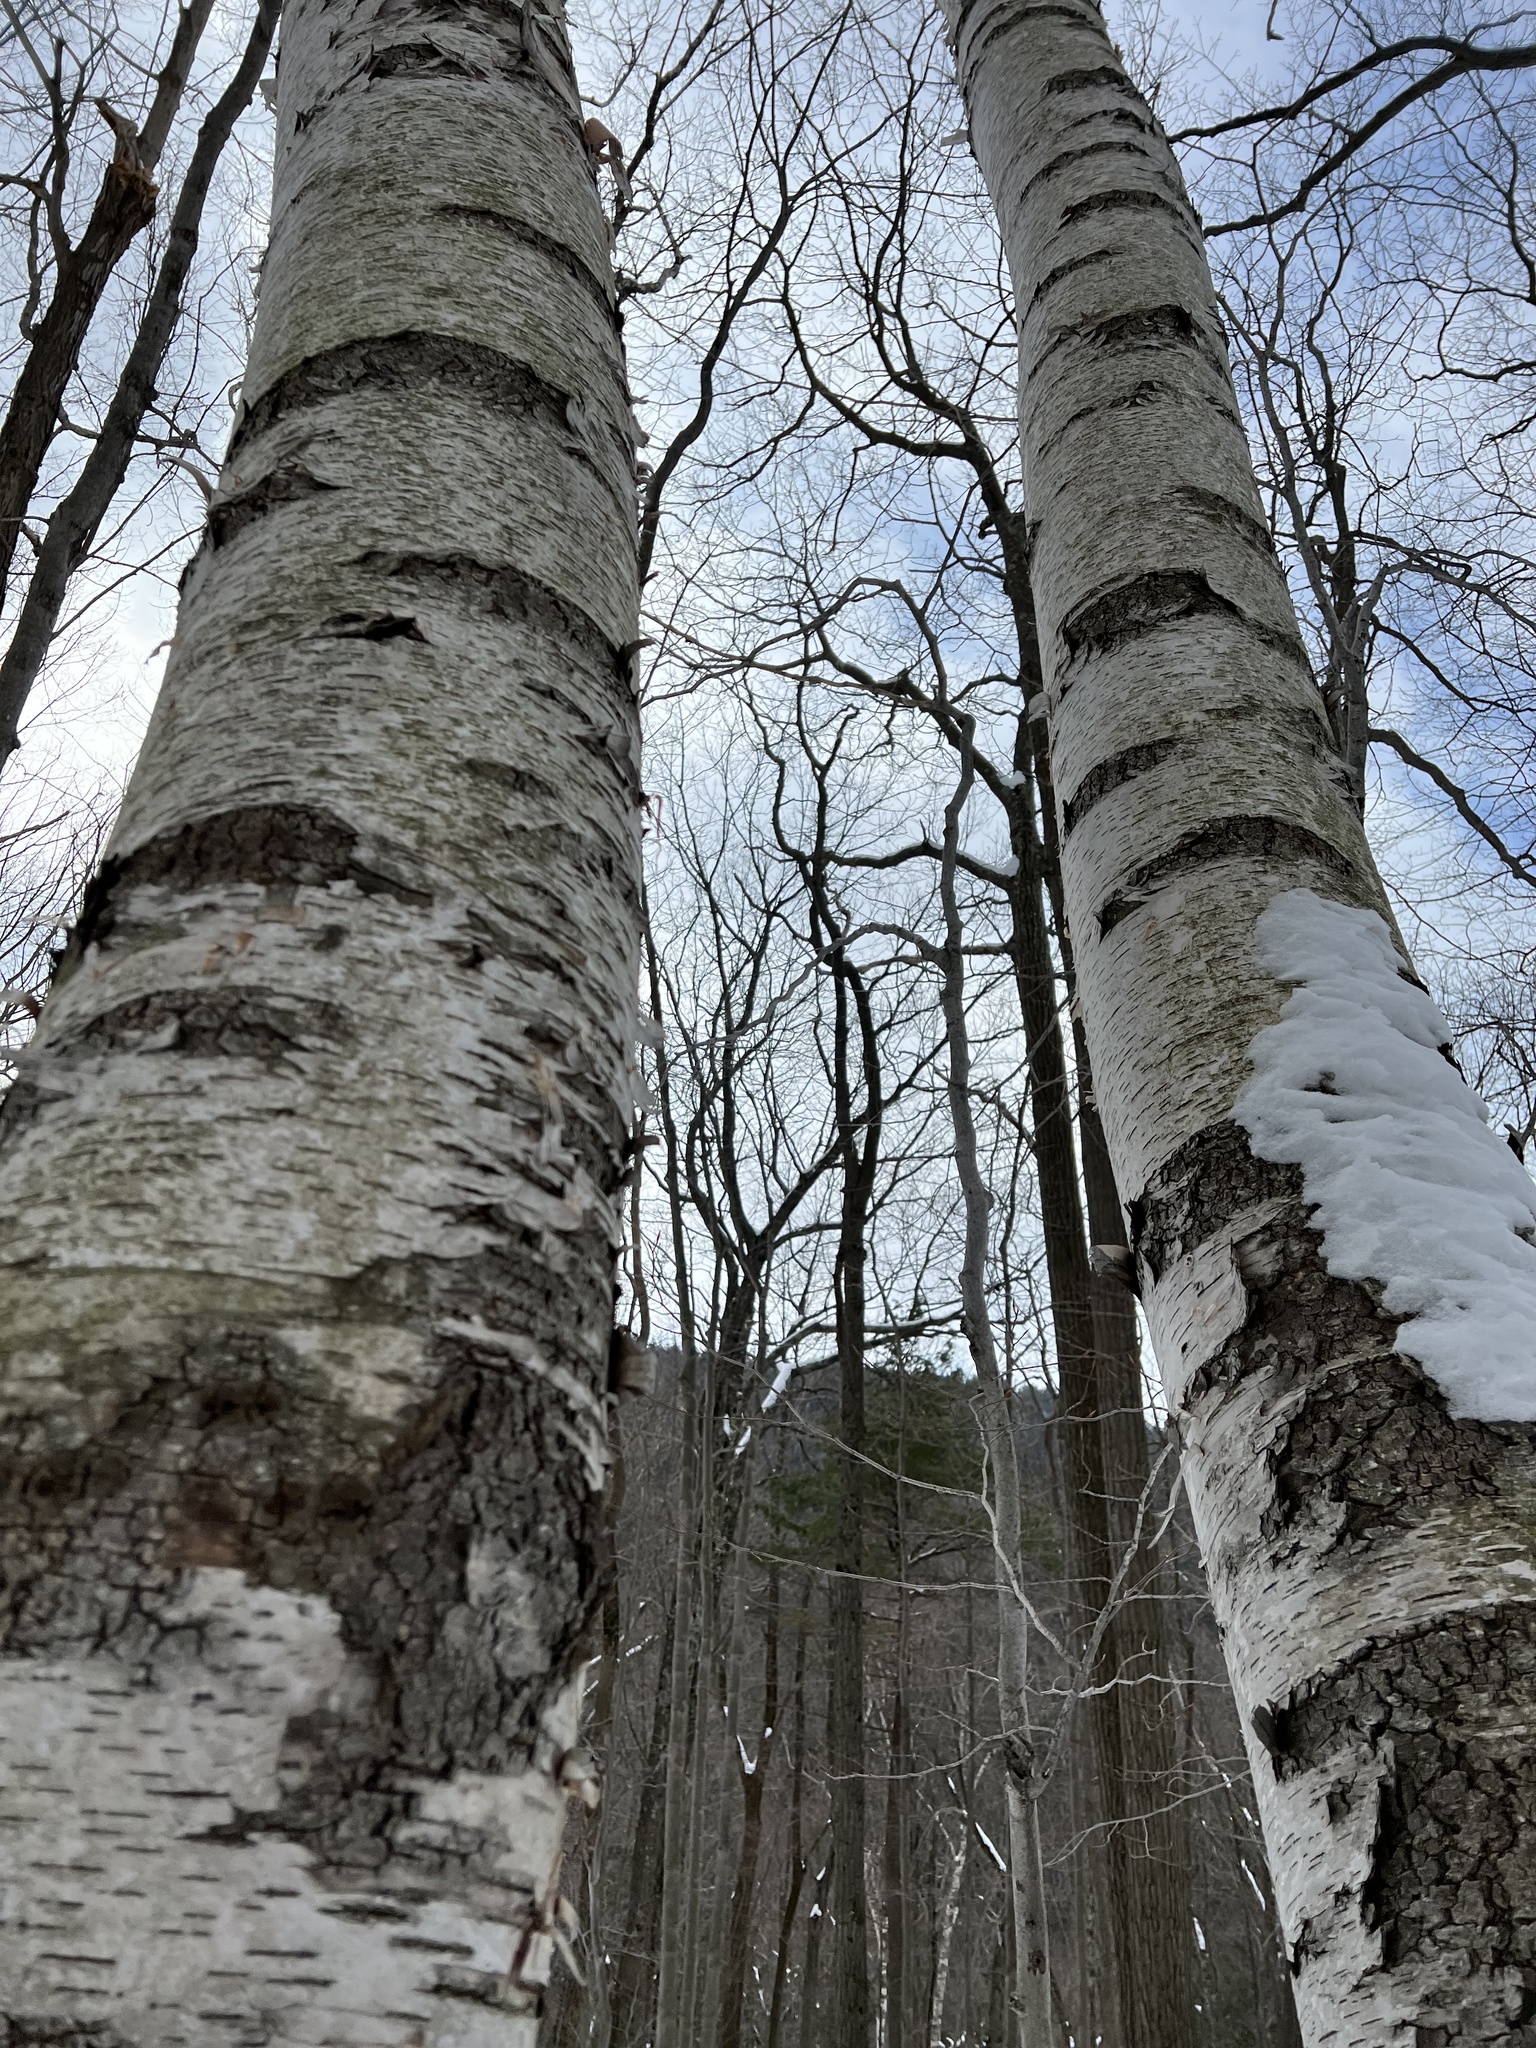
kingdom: Plantae
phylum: Tracheophyta
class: Magnoliopsida
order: Fagales
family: Betulaceae
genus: Betula
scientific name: Betula papyrifera
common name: Paper birch
